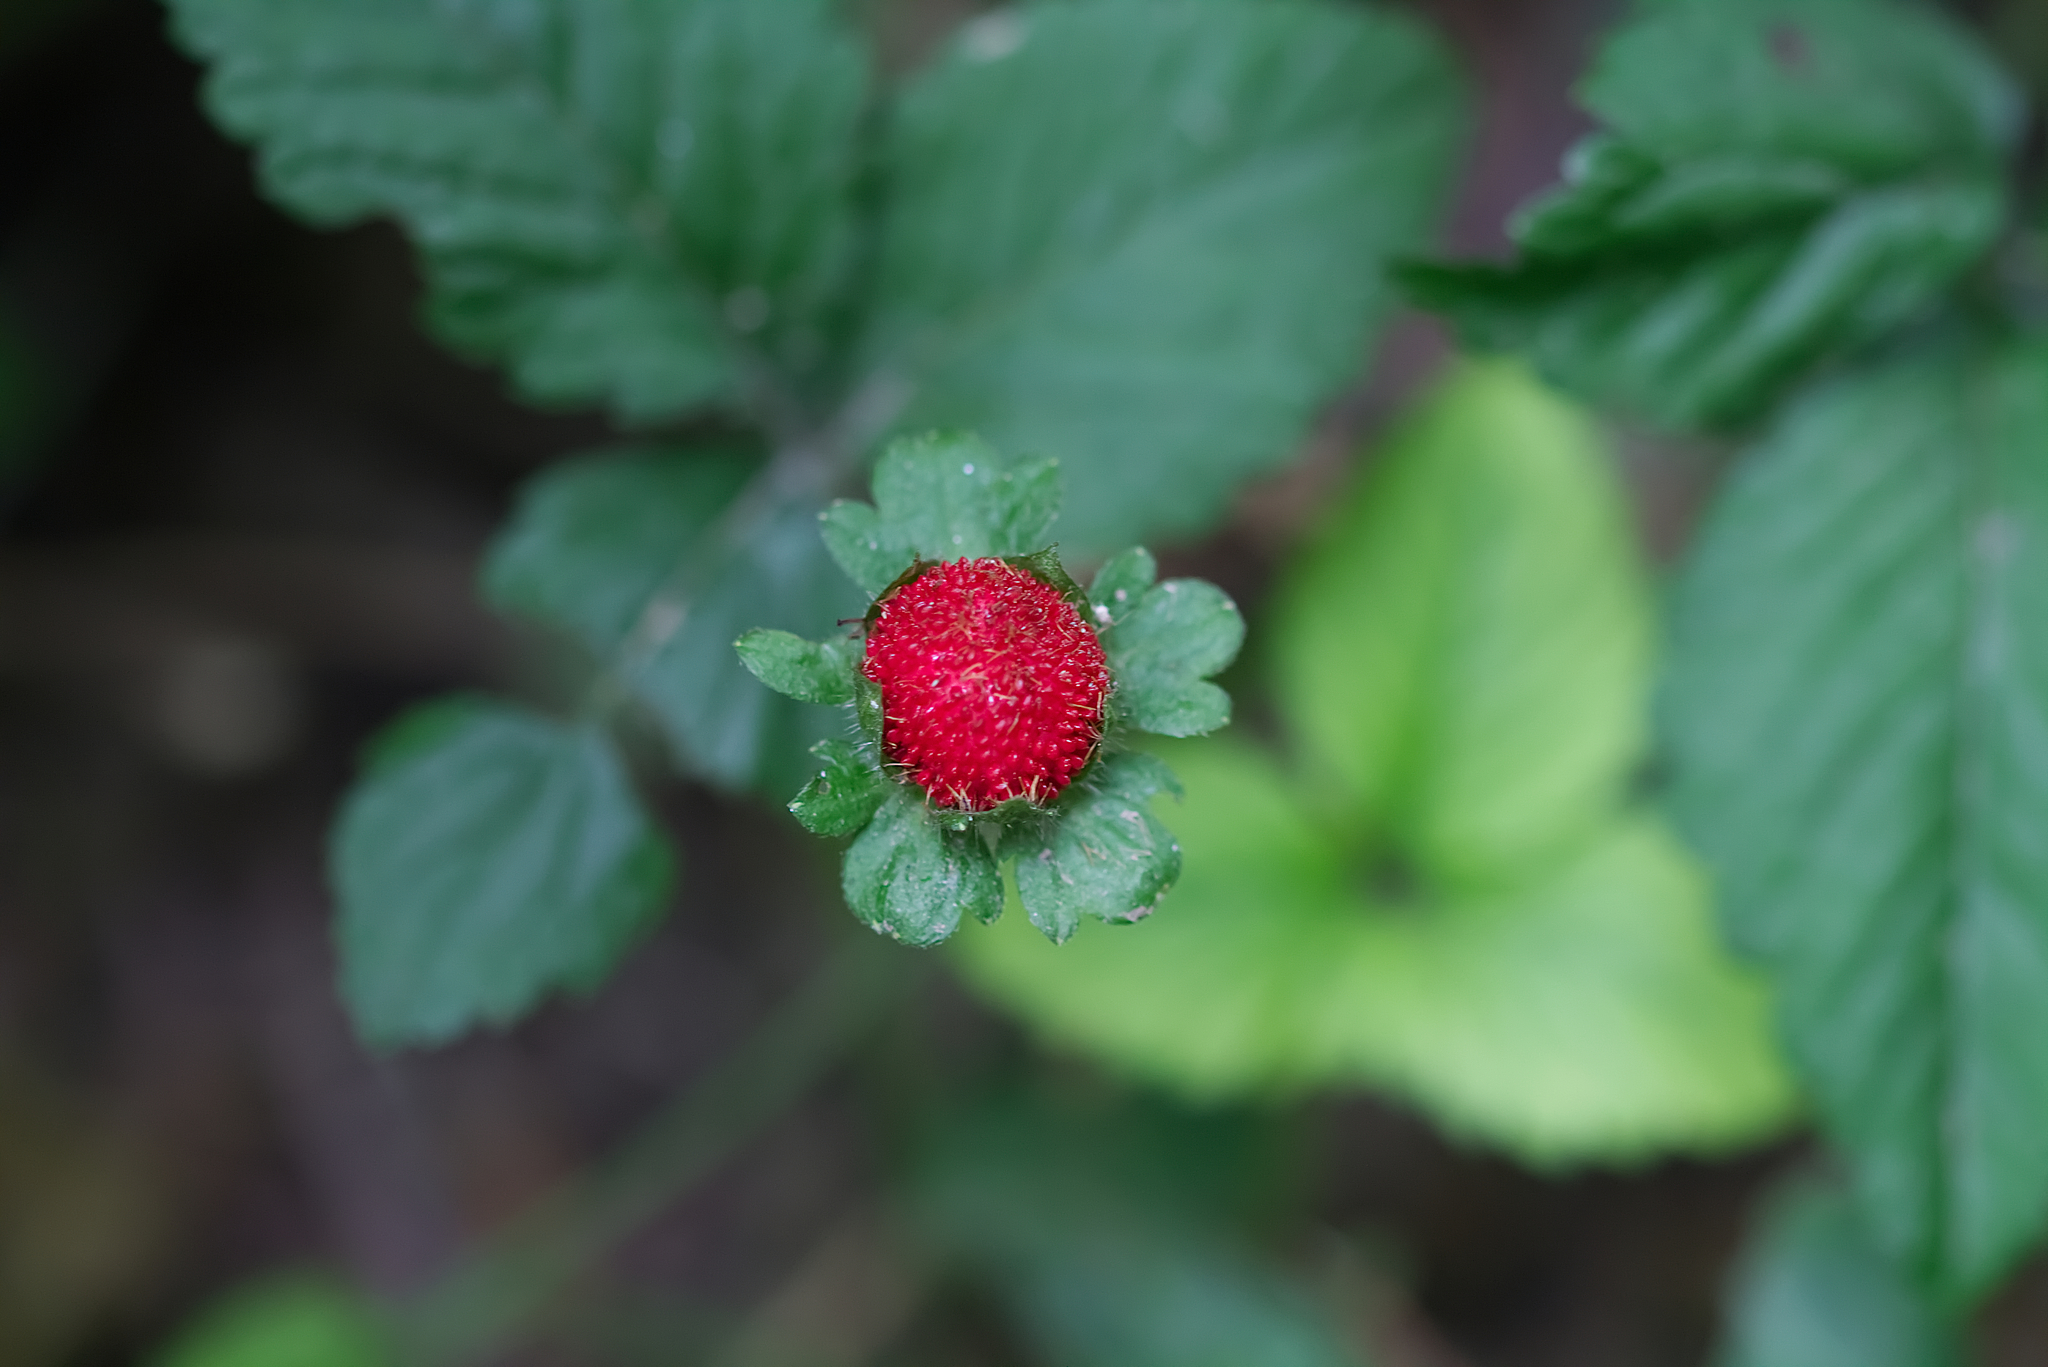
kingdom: Plantae
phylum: Tracheophyta
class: Magnoliopsida
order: Rosales
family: Rosaceae
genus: Potentilla
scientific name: Potentilla indica
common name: Yellow-flowered strawberry
